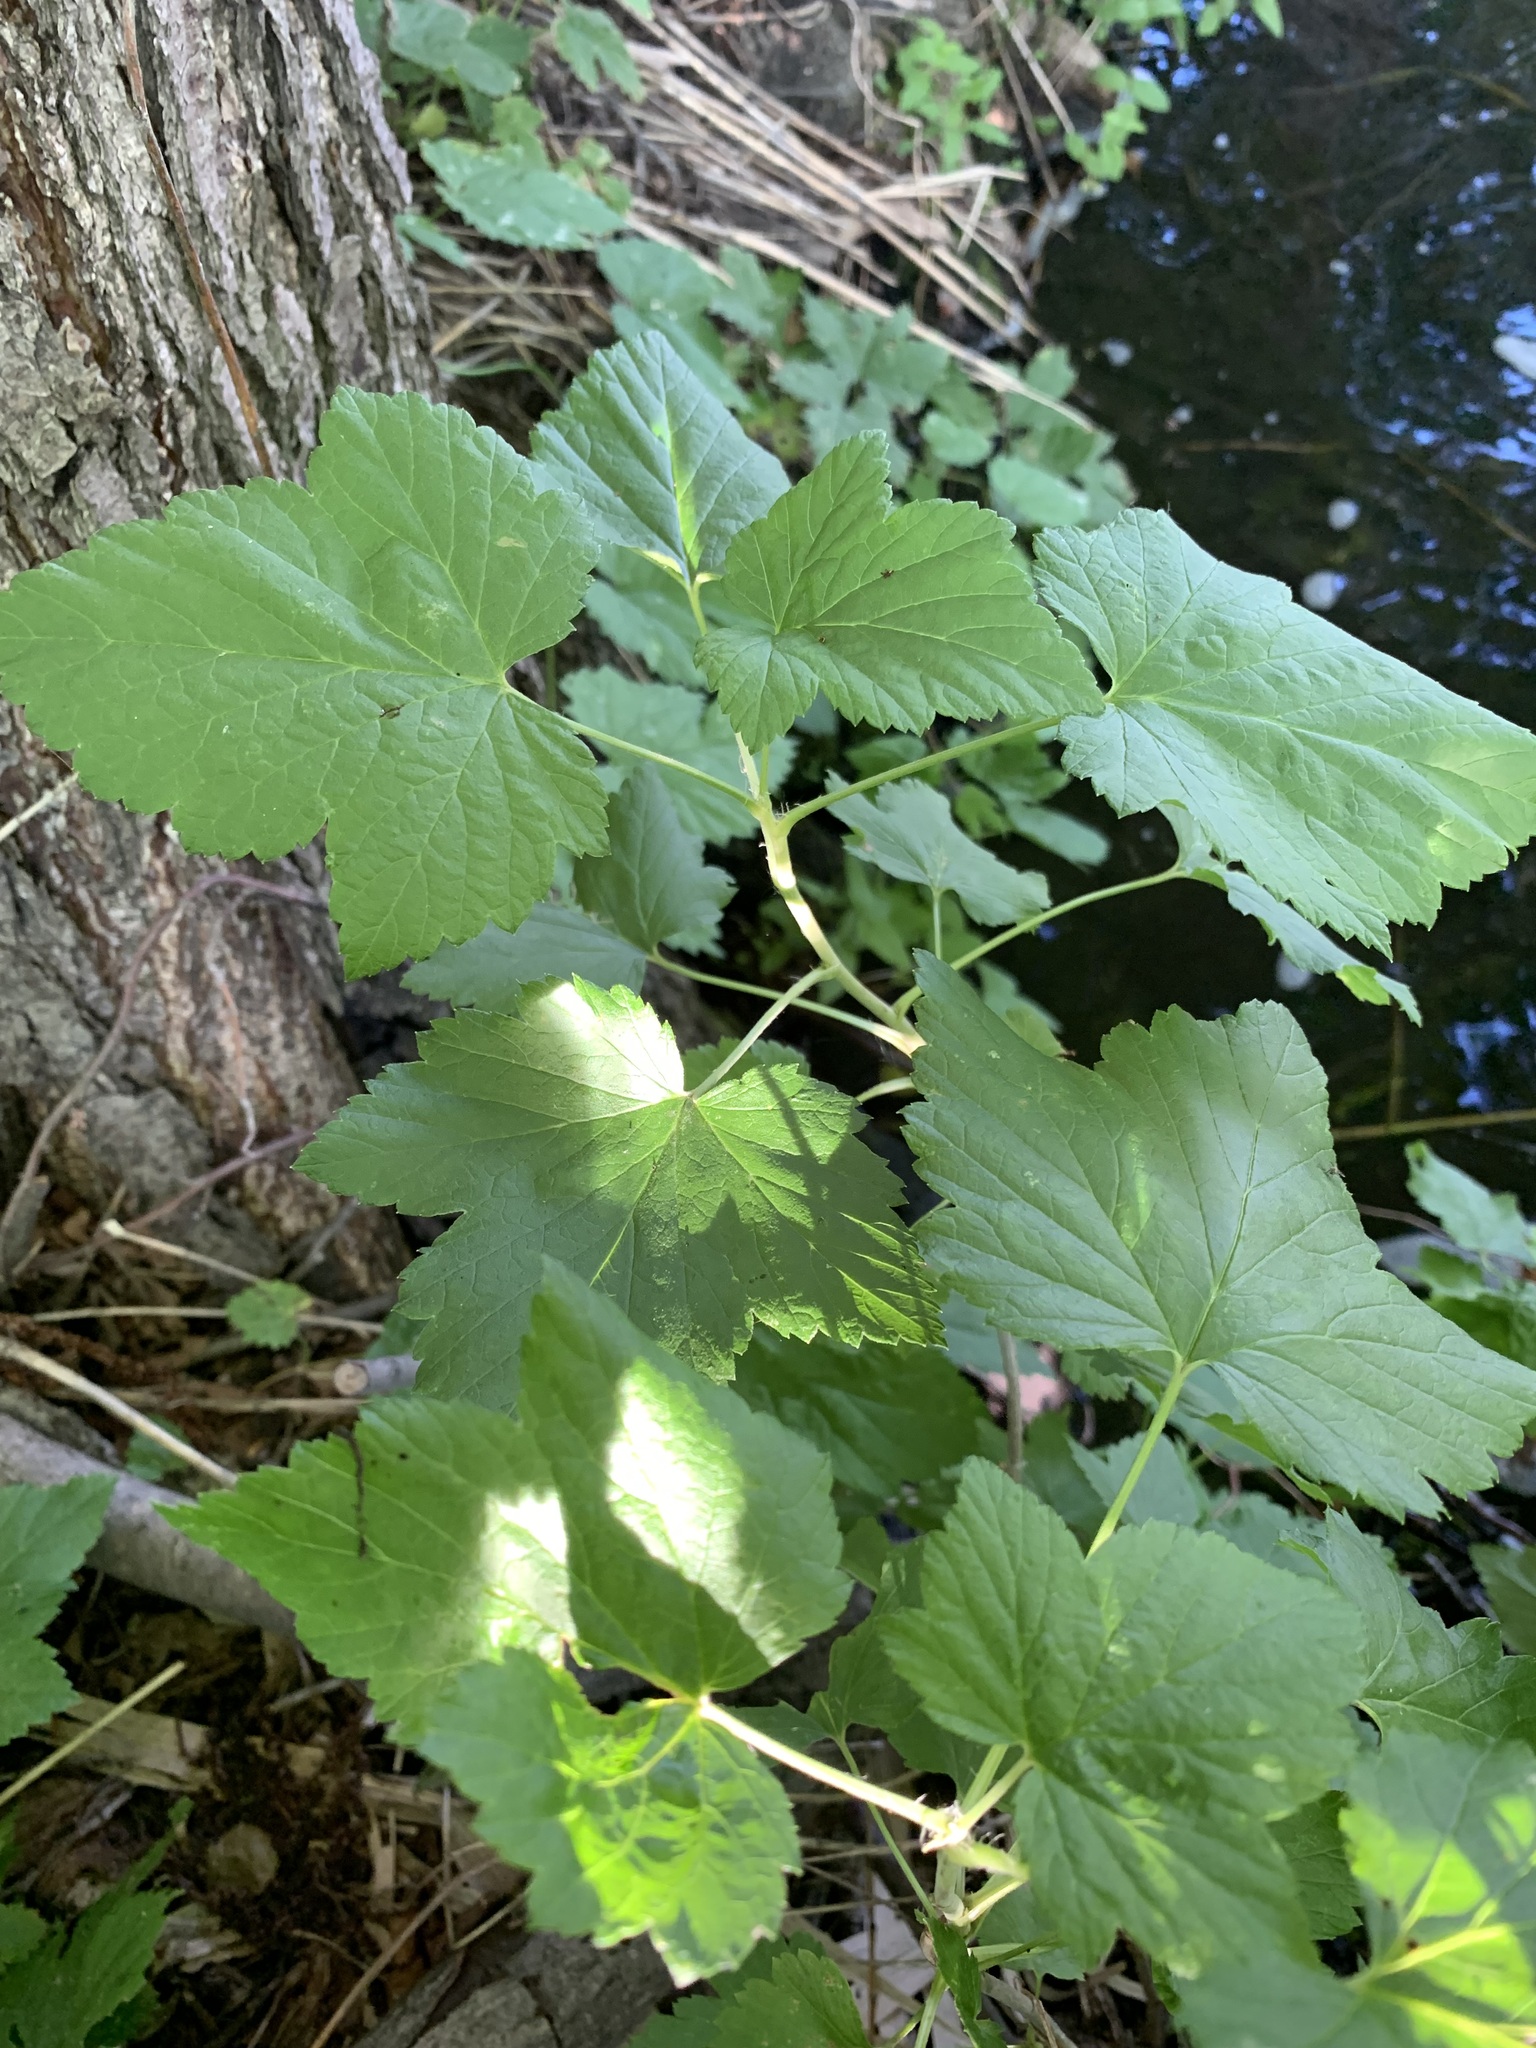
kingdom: Plantae
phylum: Tracheophyta
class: Magnoliopsida
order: Saxifragales
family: Grossulariaceae
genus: Ribes
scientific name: Ribes nigrum
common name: Black currant
